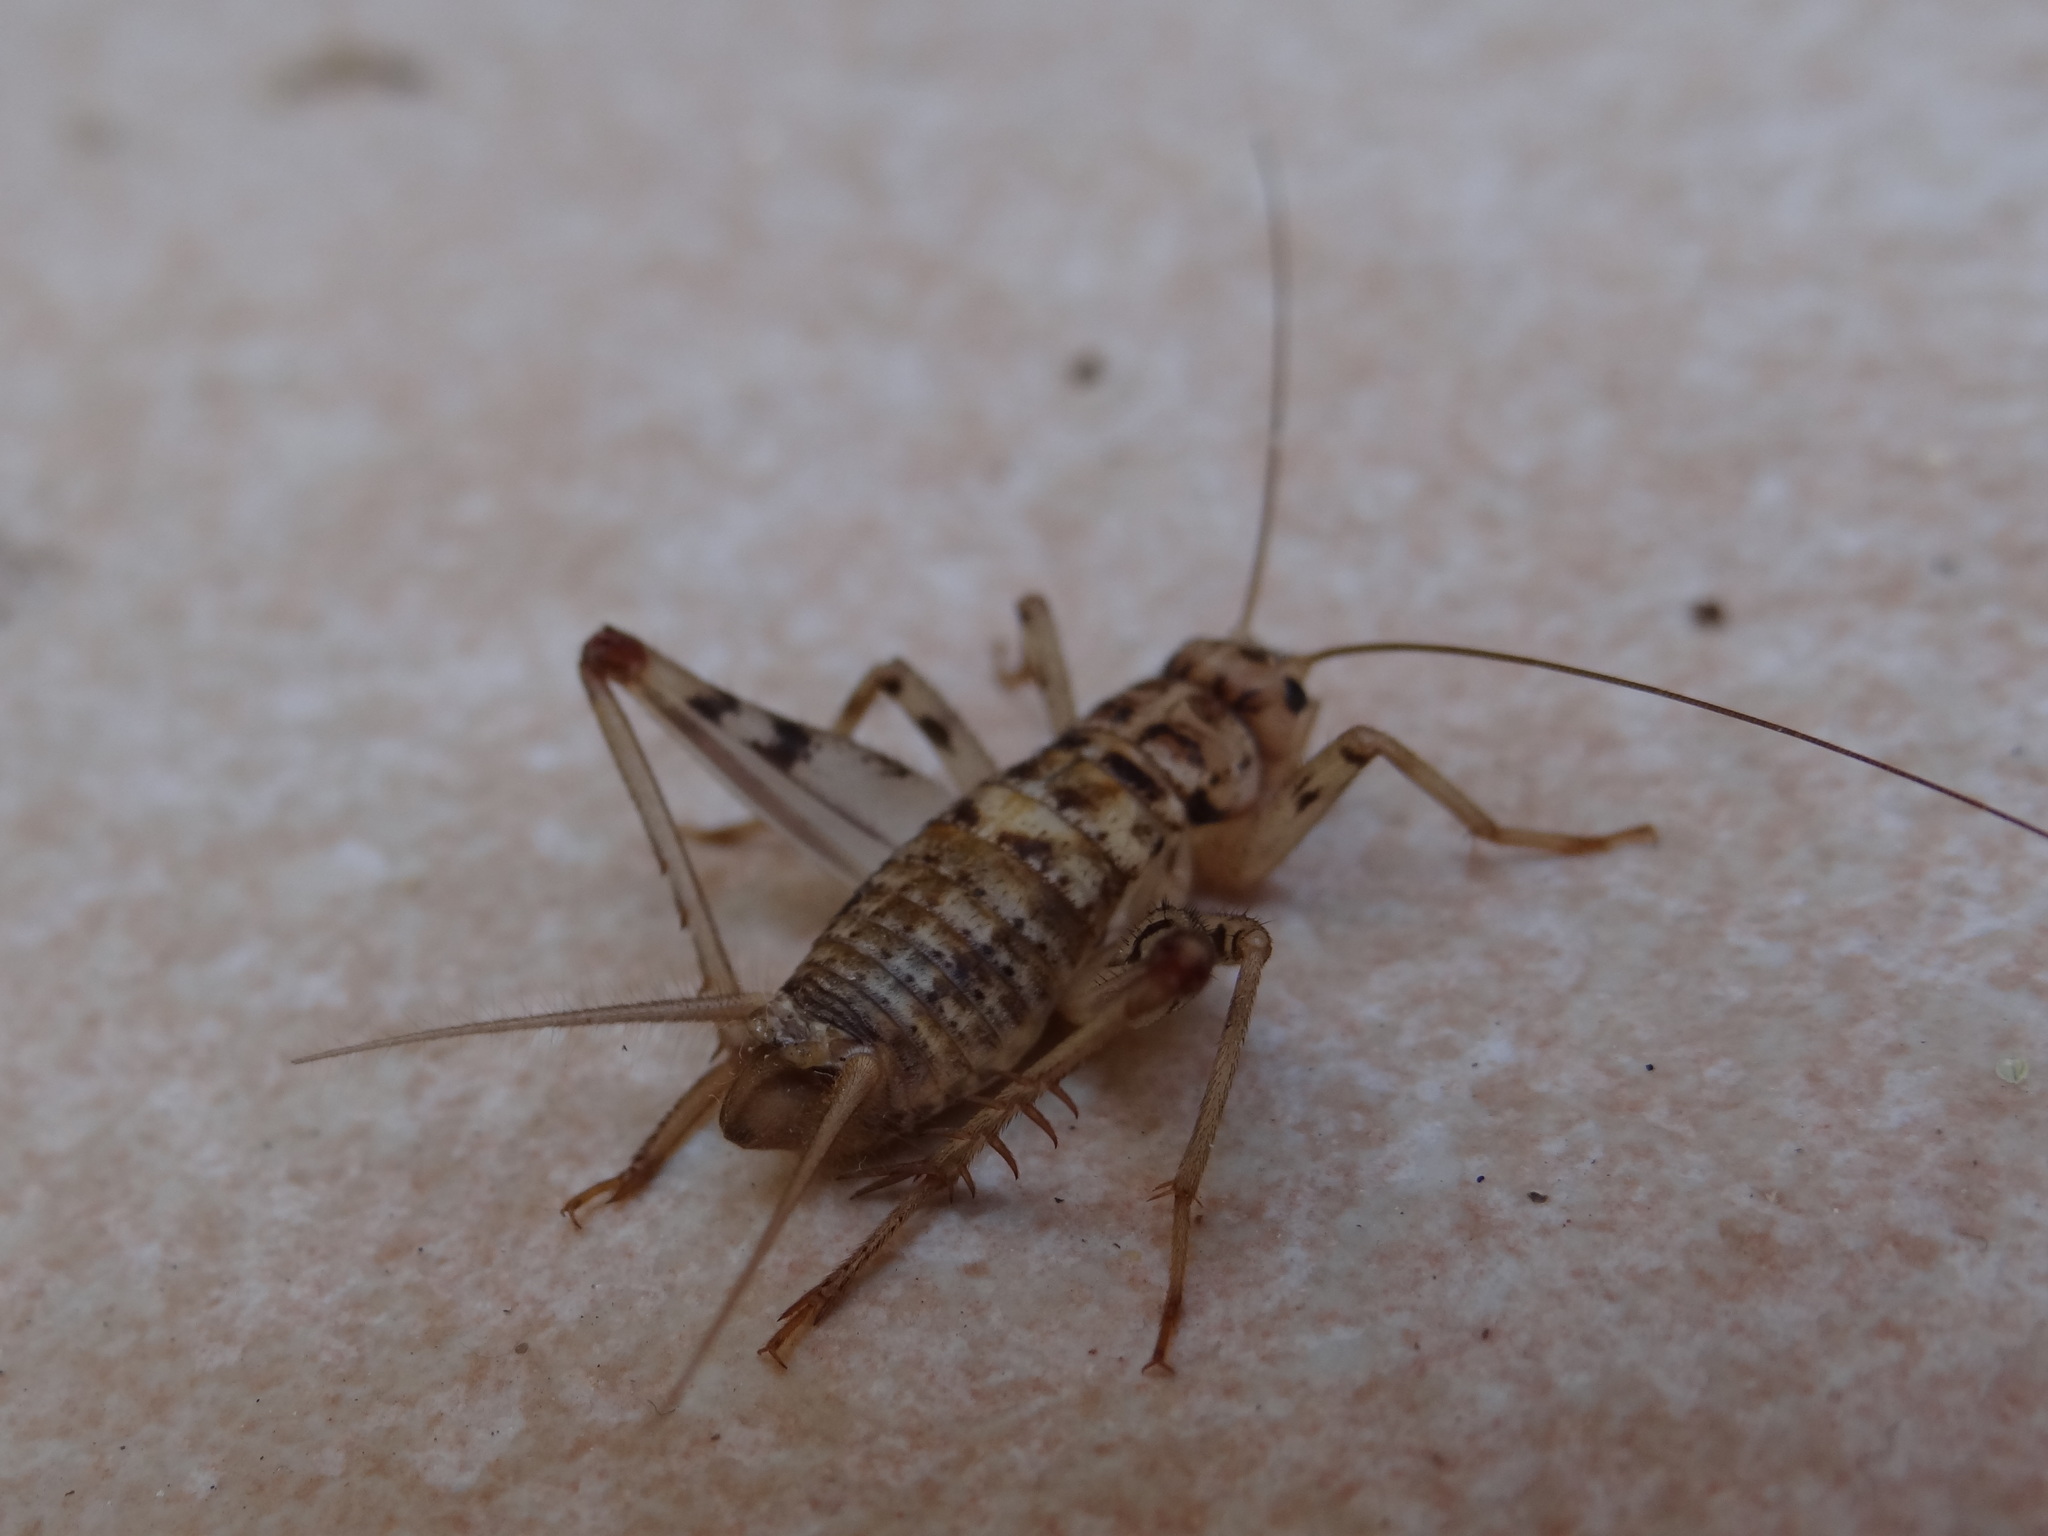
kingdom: Animalia
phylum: Arthropoda
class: Insecta
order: Orthoptera
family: Gryllidae
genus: Gryllomorpha
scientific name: Gryllomorpha dalmatina
